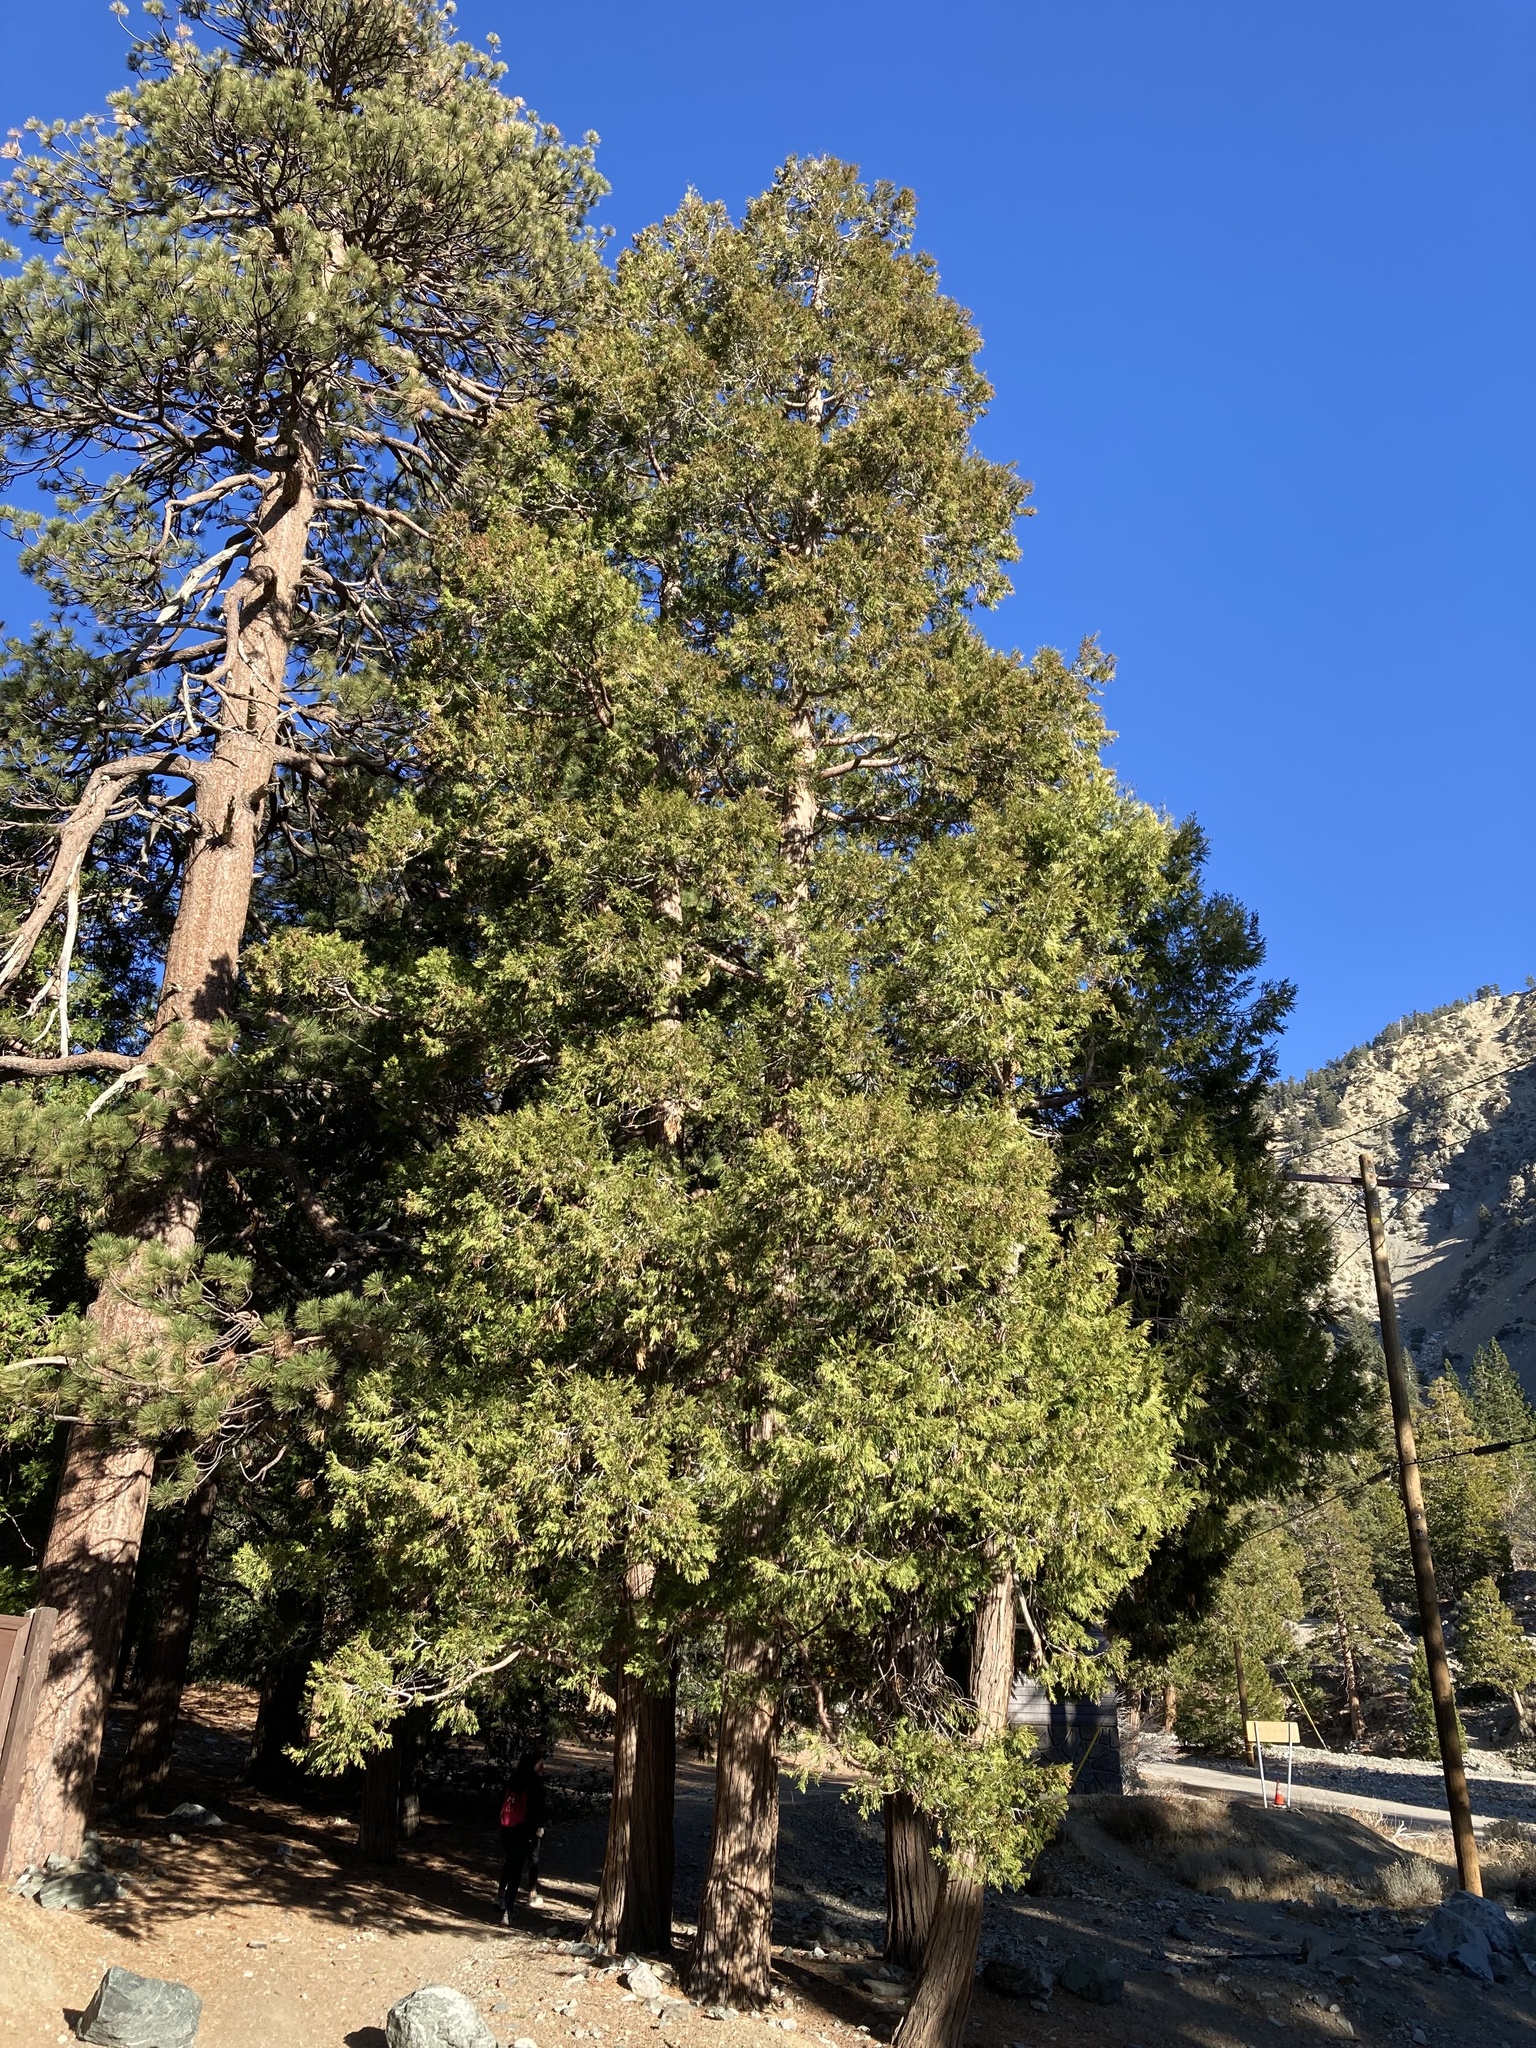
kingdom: Plantae
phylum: Tracheophyta
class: Pinopsida
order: Pinales
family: Cupressaceae
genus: Calocedrus
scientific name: Calocedrus decurrens
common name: Californian incense-cedar
